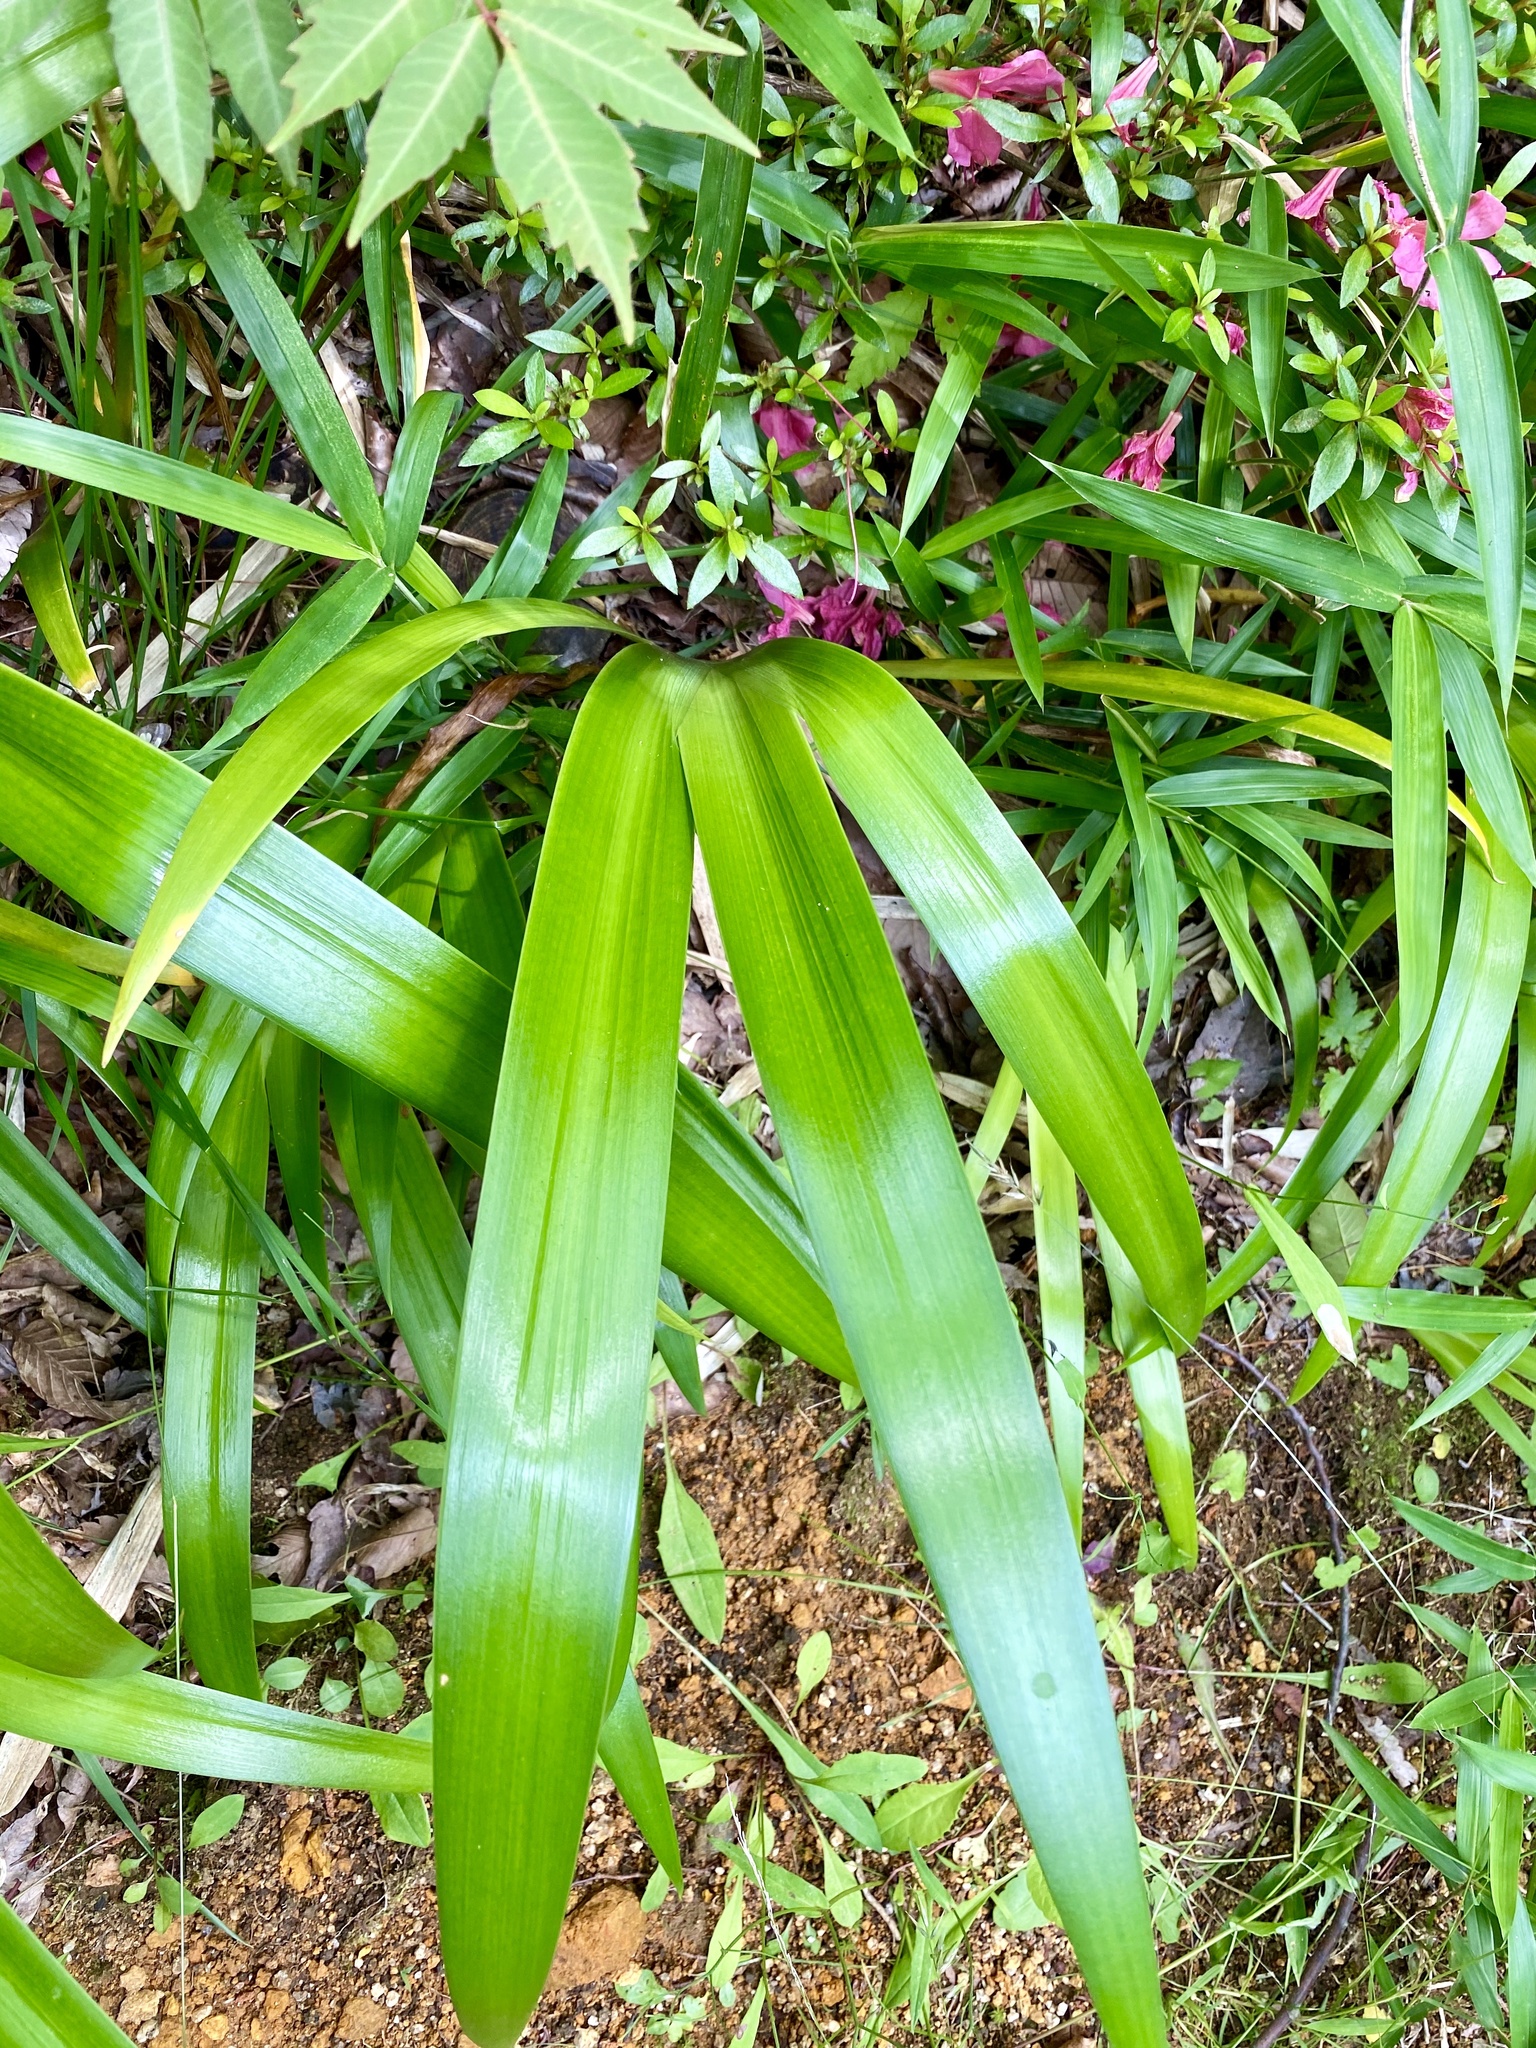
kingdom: Plantae
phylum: Tracheophyta
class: Liliopsida
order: Asparagales
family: Iridaceae
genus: Iris
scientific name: Iris japonica
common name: Butterfly-flower
